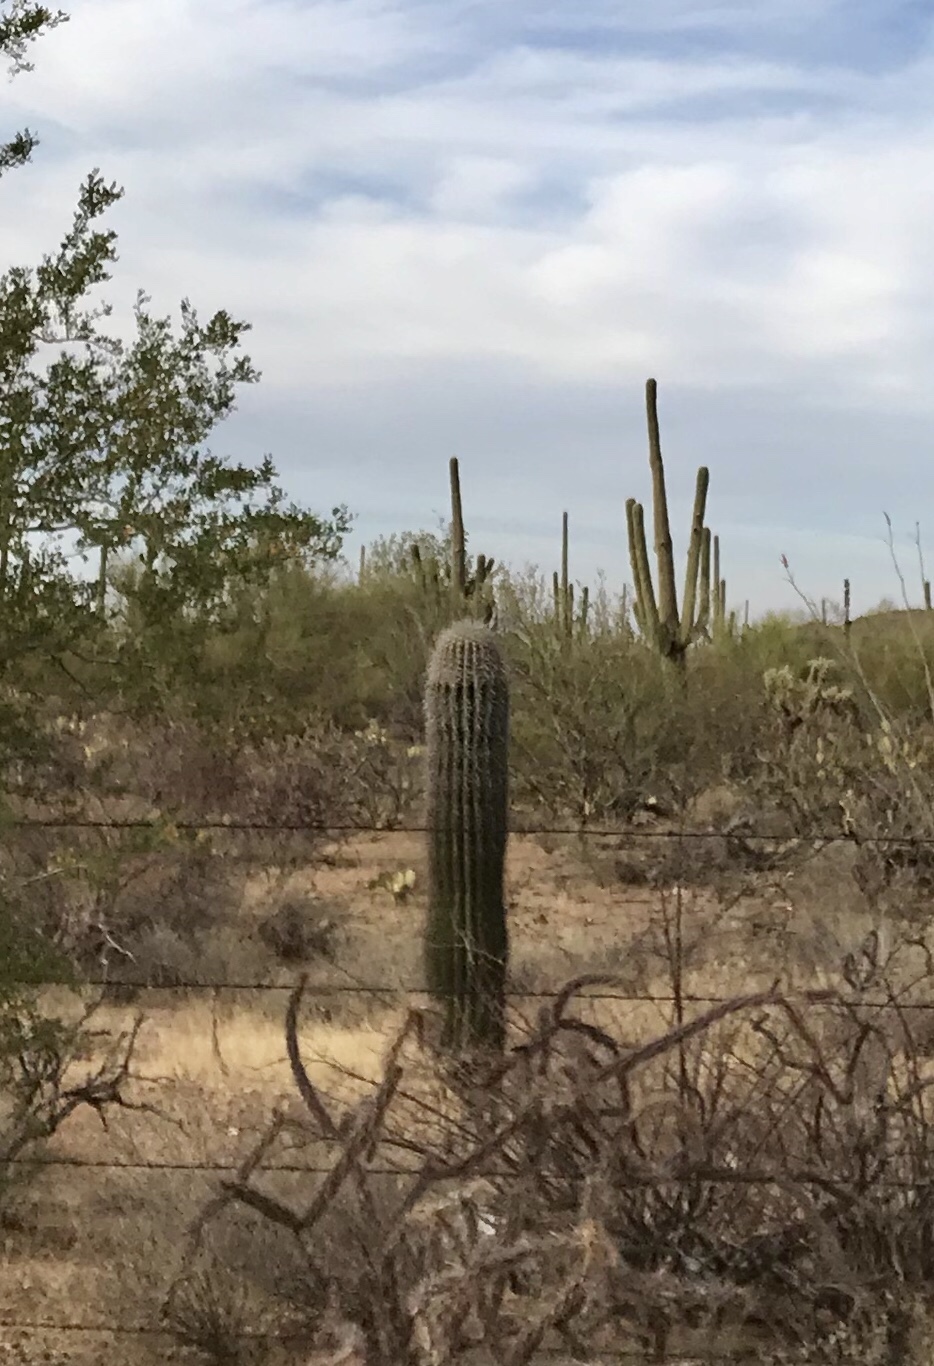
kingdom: Plantae
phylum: Tracheophyta
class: Magnoliopsida
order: Caryophyllales
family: Cactaceae
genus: Carnegiea
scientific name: Carnegiea gigantea
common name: Saguaro
